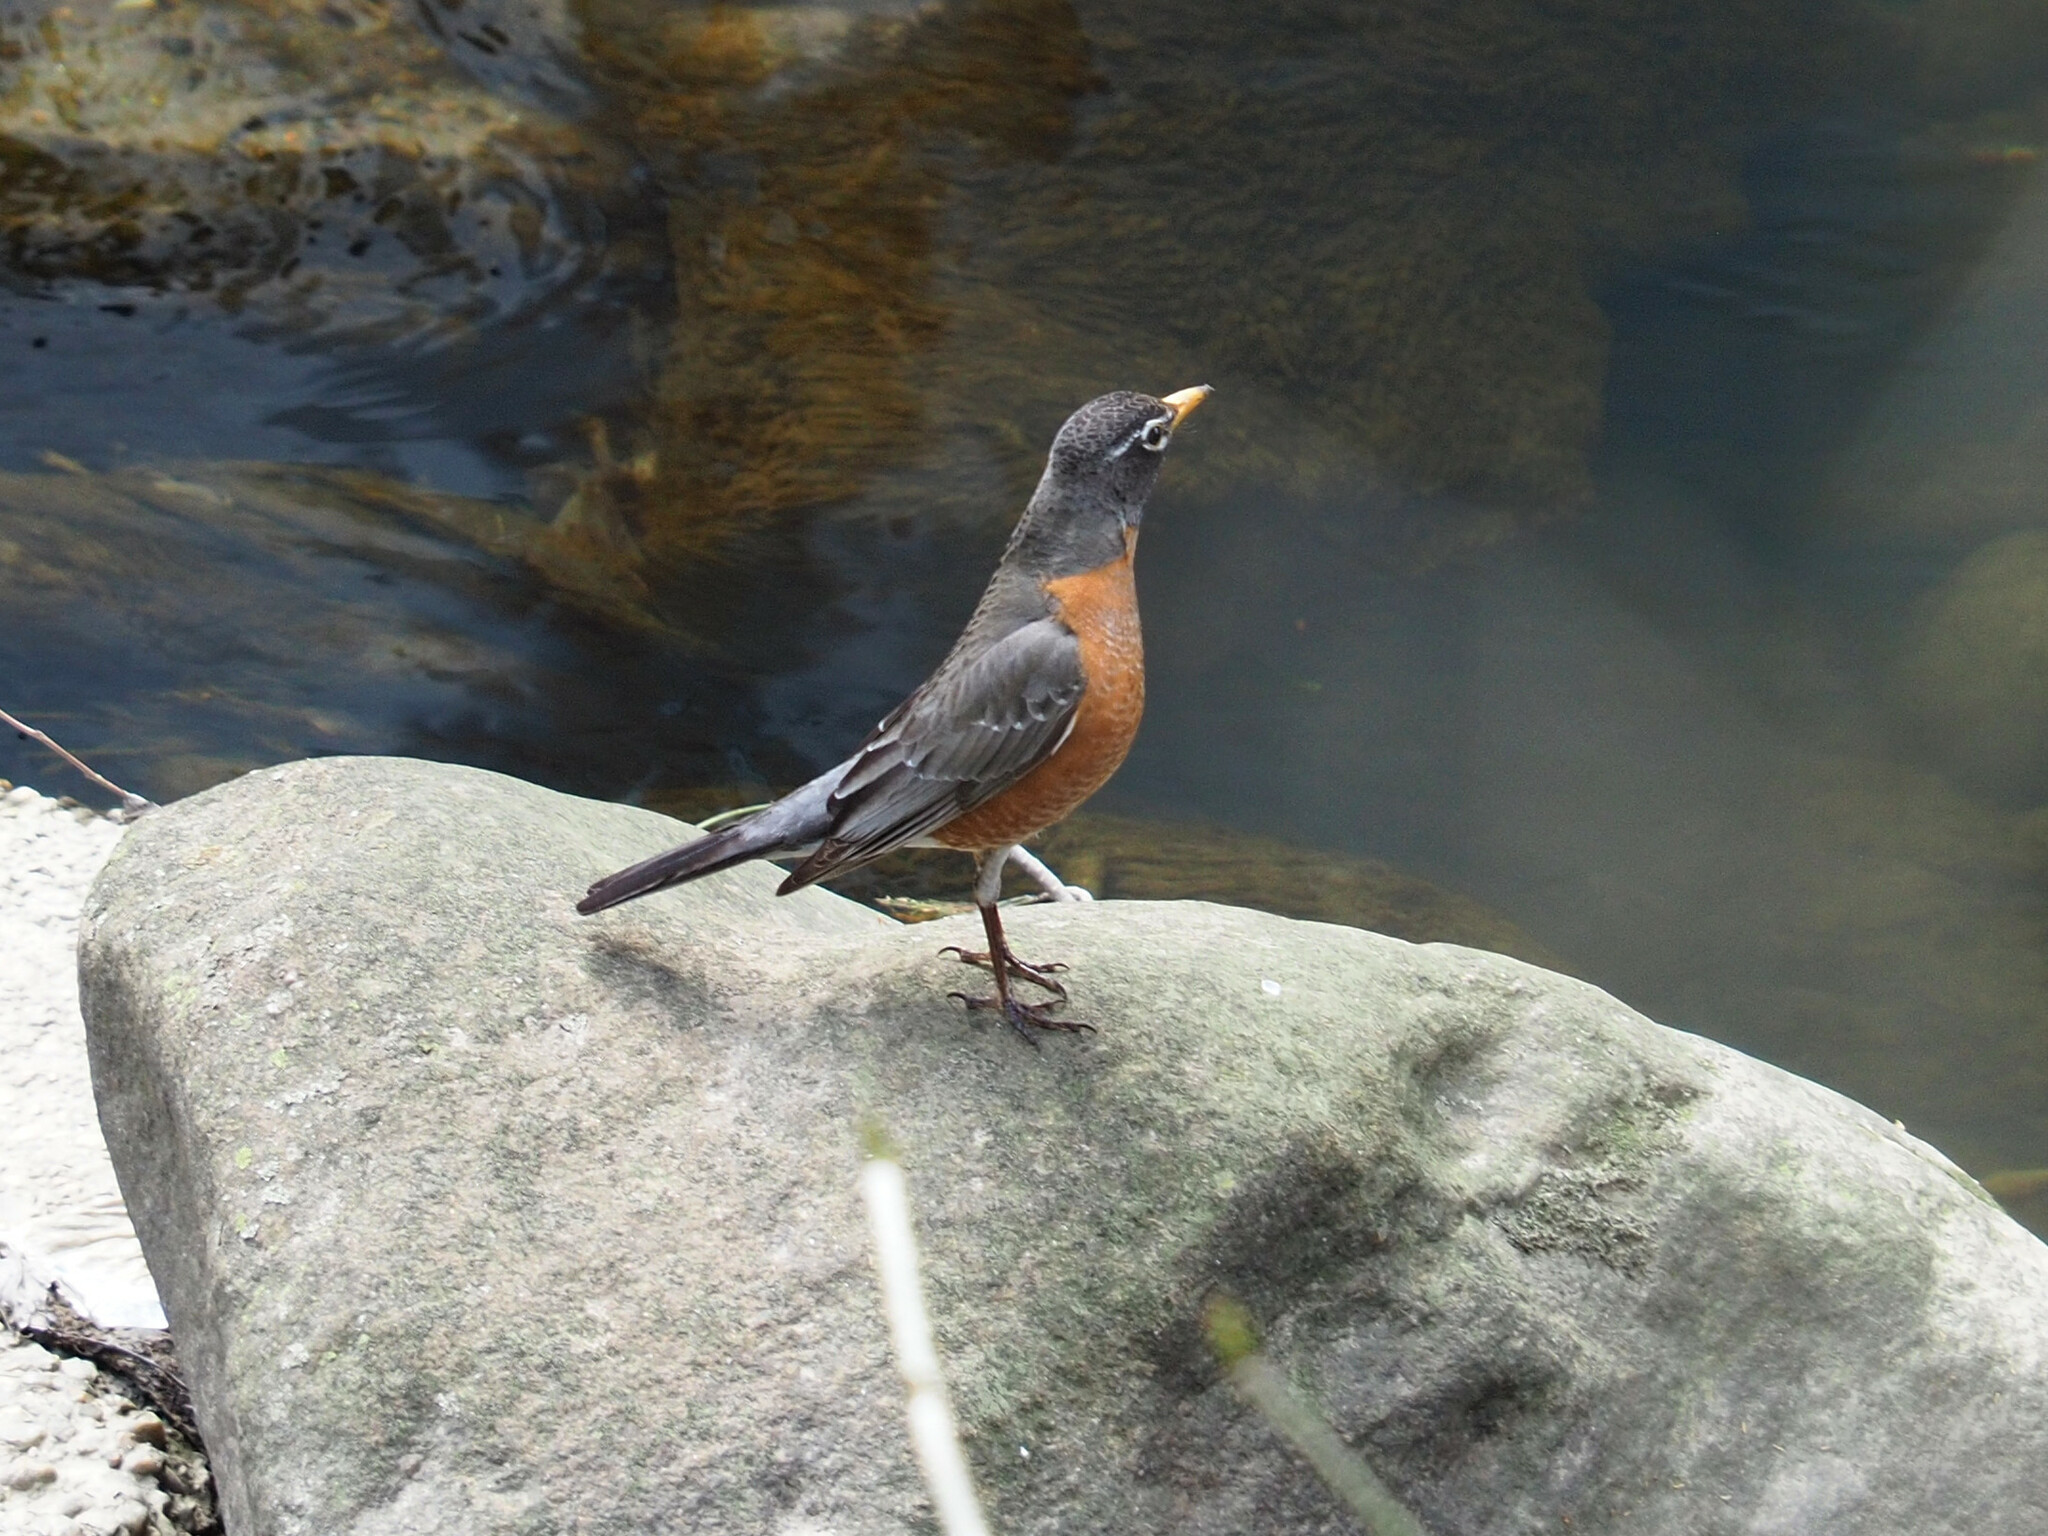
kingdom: Animalia
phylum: Chordata
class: Aves
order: Passeriformes
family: Turdidae
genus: Turdus
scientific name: Turdus migratorius
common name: American robin
